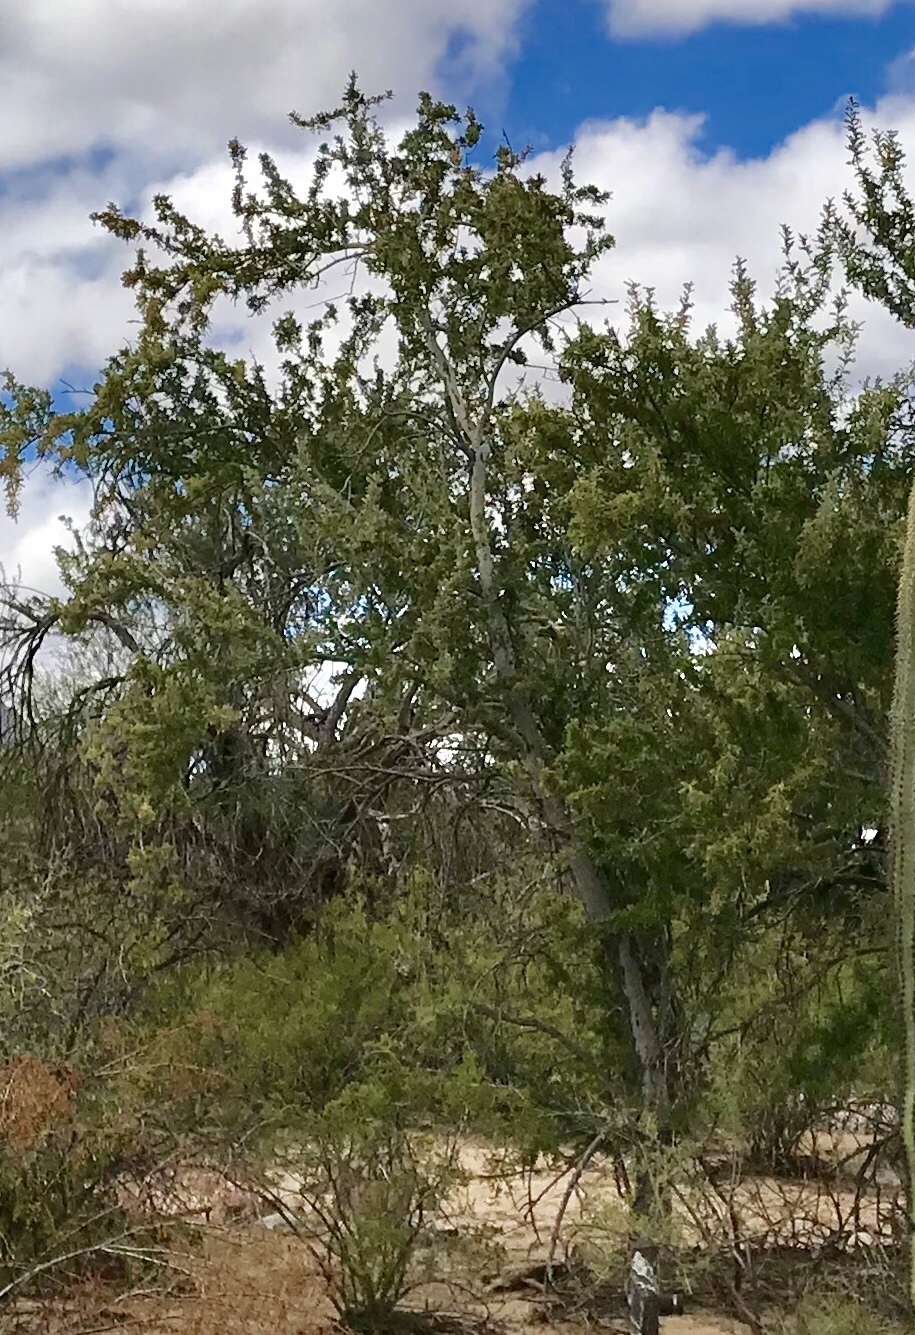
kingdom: Plantae
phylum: Tracheophyta
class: Magnoliopsida
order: Fabales
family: Fabaceae
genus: Olneya
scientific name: Olneya tesota
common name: Desert ironwood
